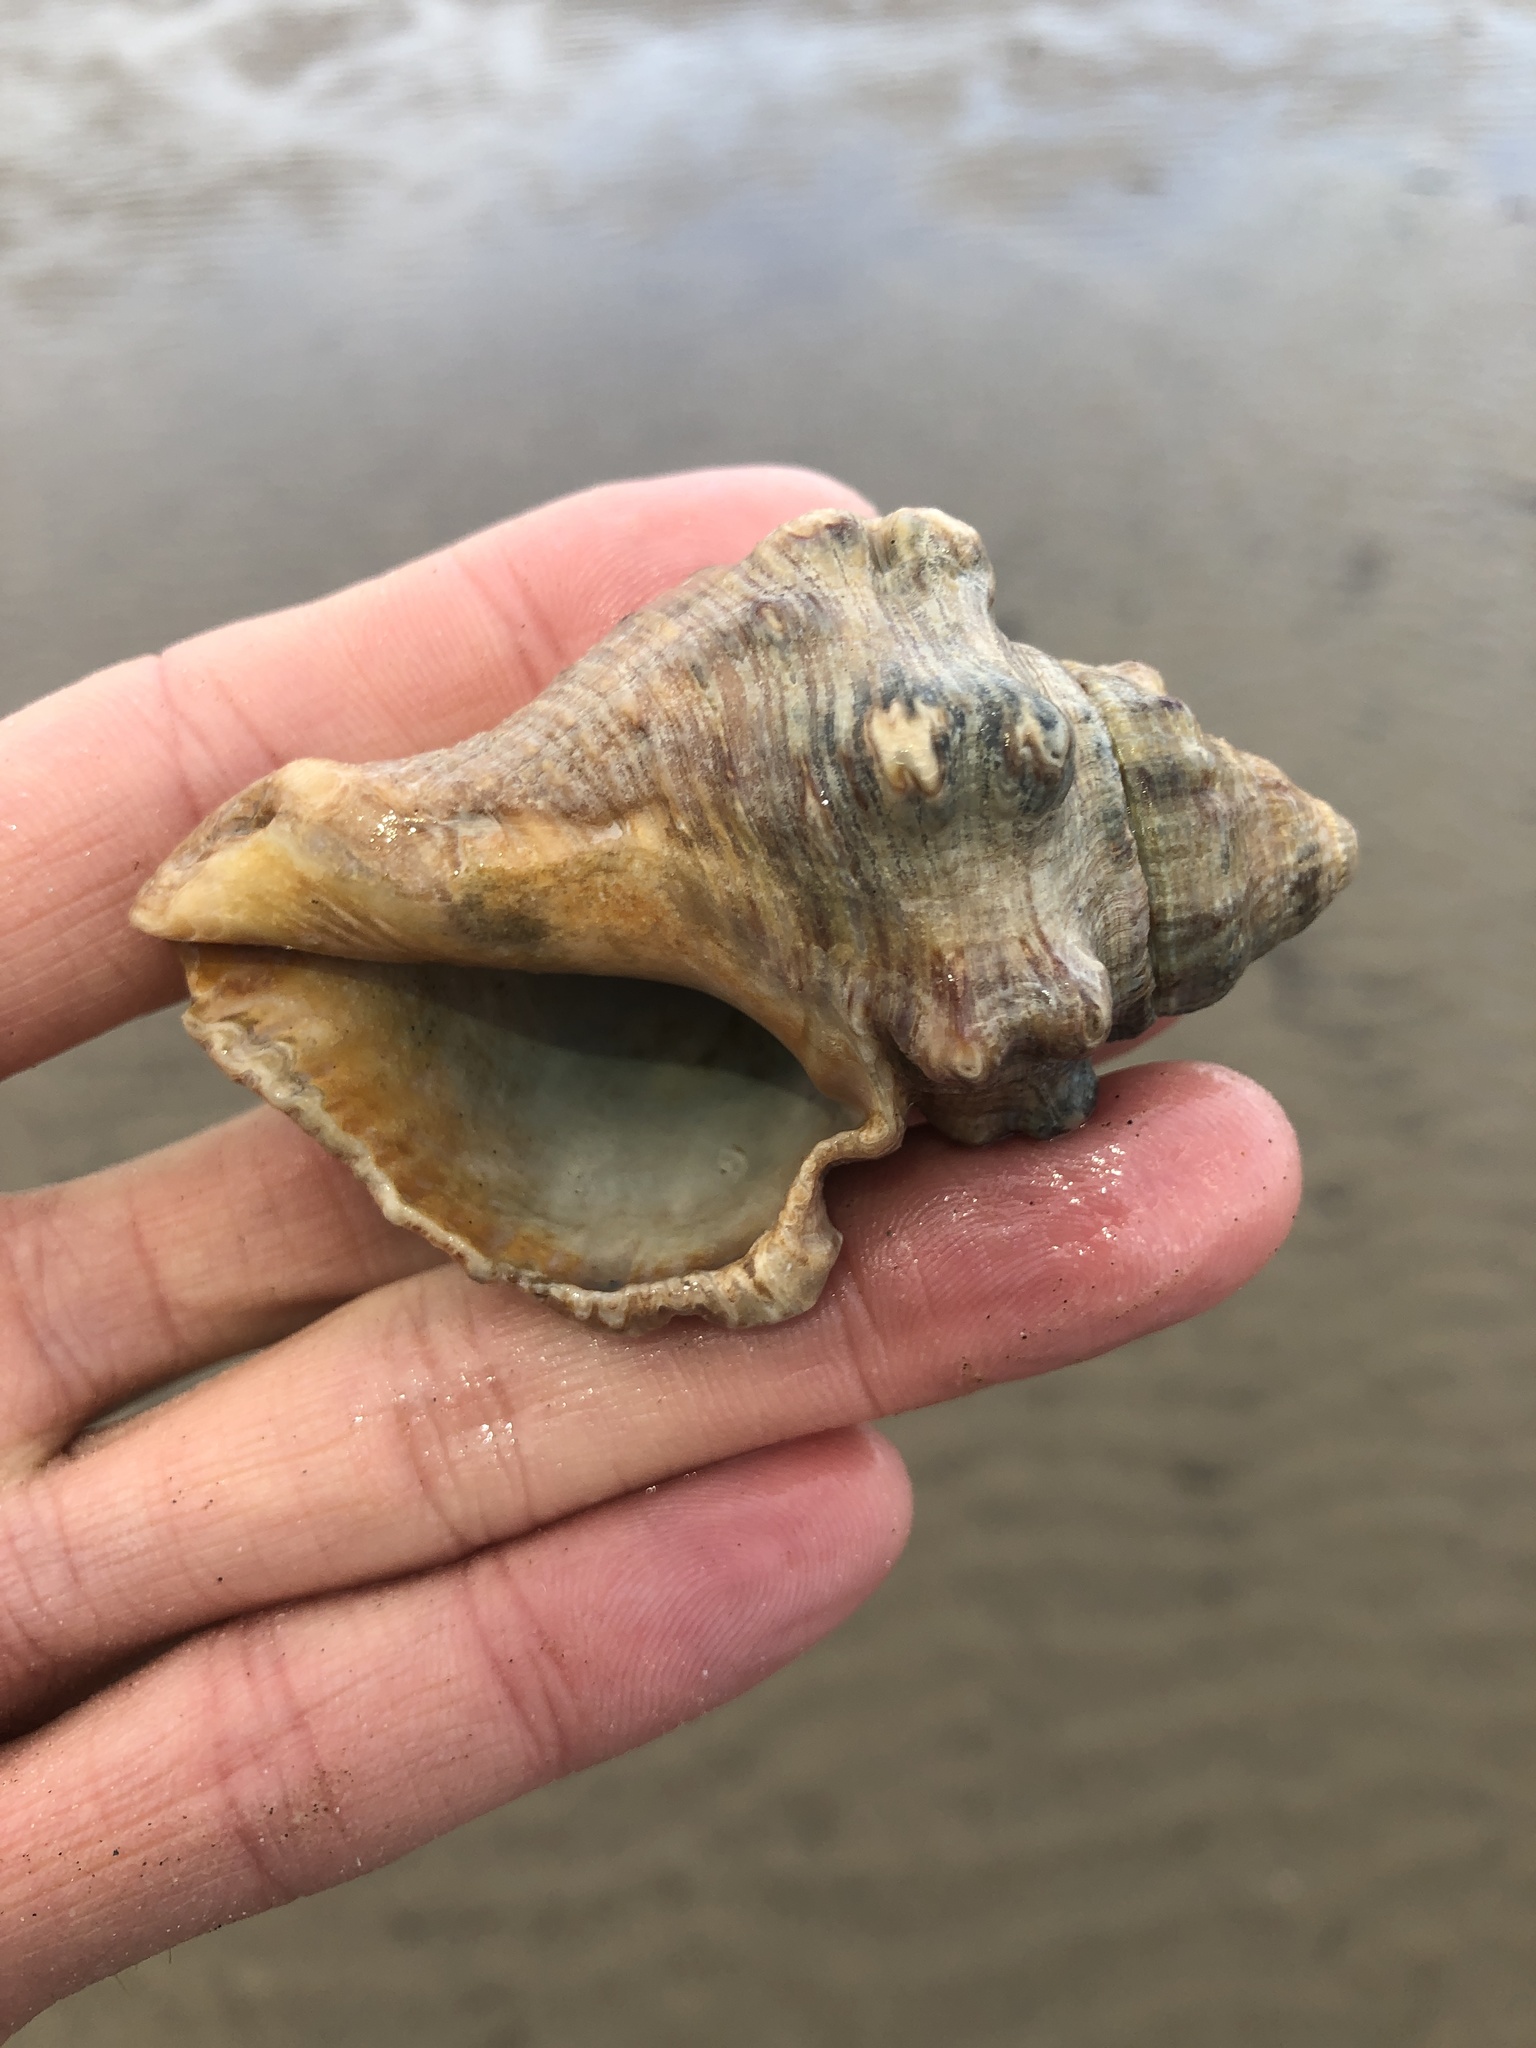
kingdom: Animalia
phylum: Mollusca
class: Gastropoda
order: Neogastropoda
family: Muricidae
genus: Stramonita
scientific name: Stramonita canaliculata
